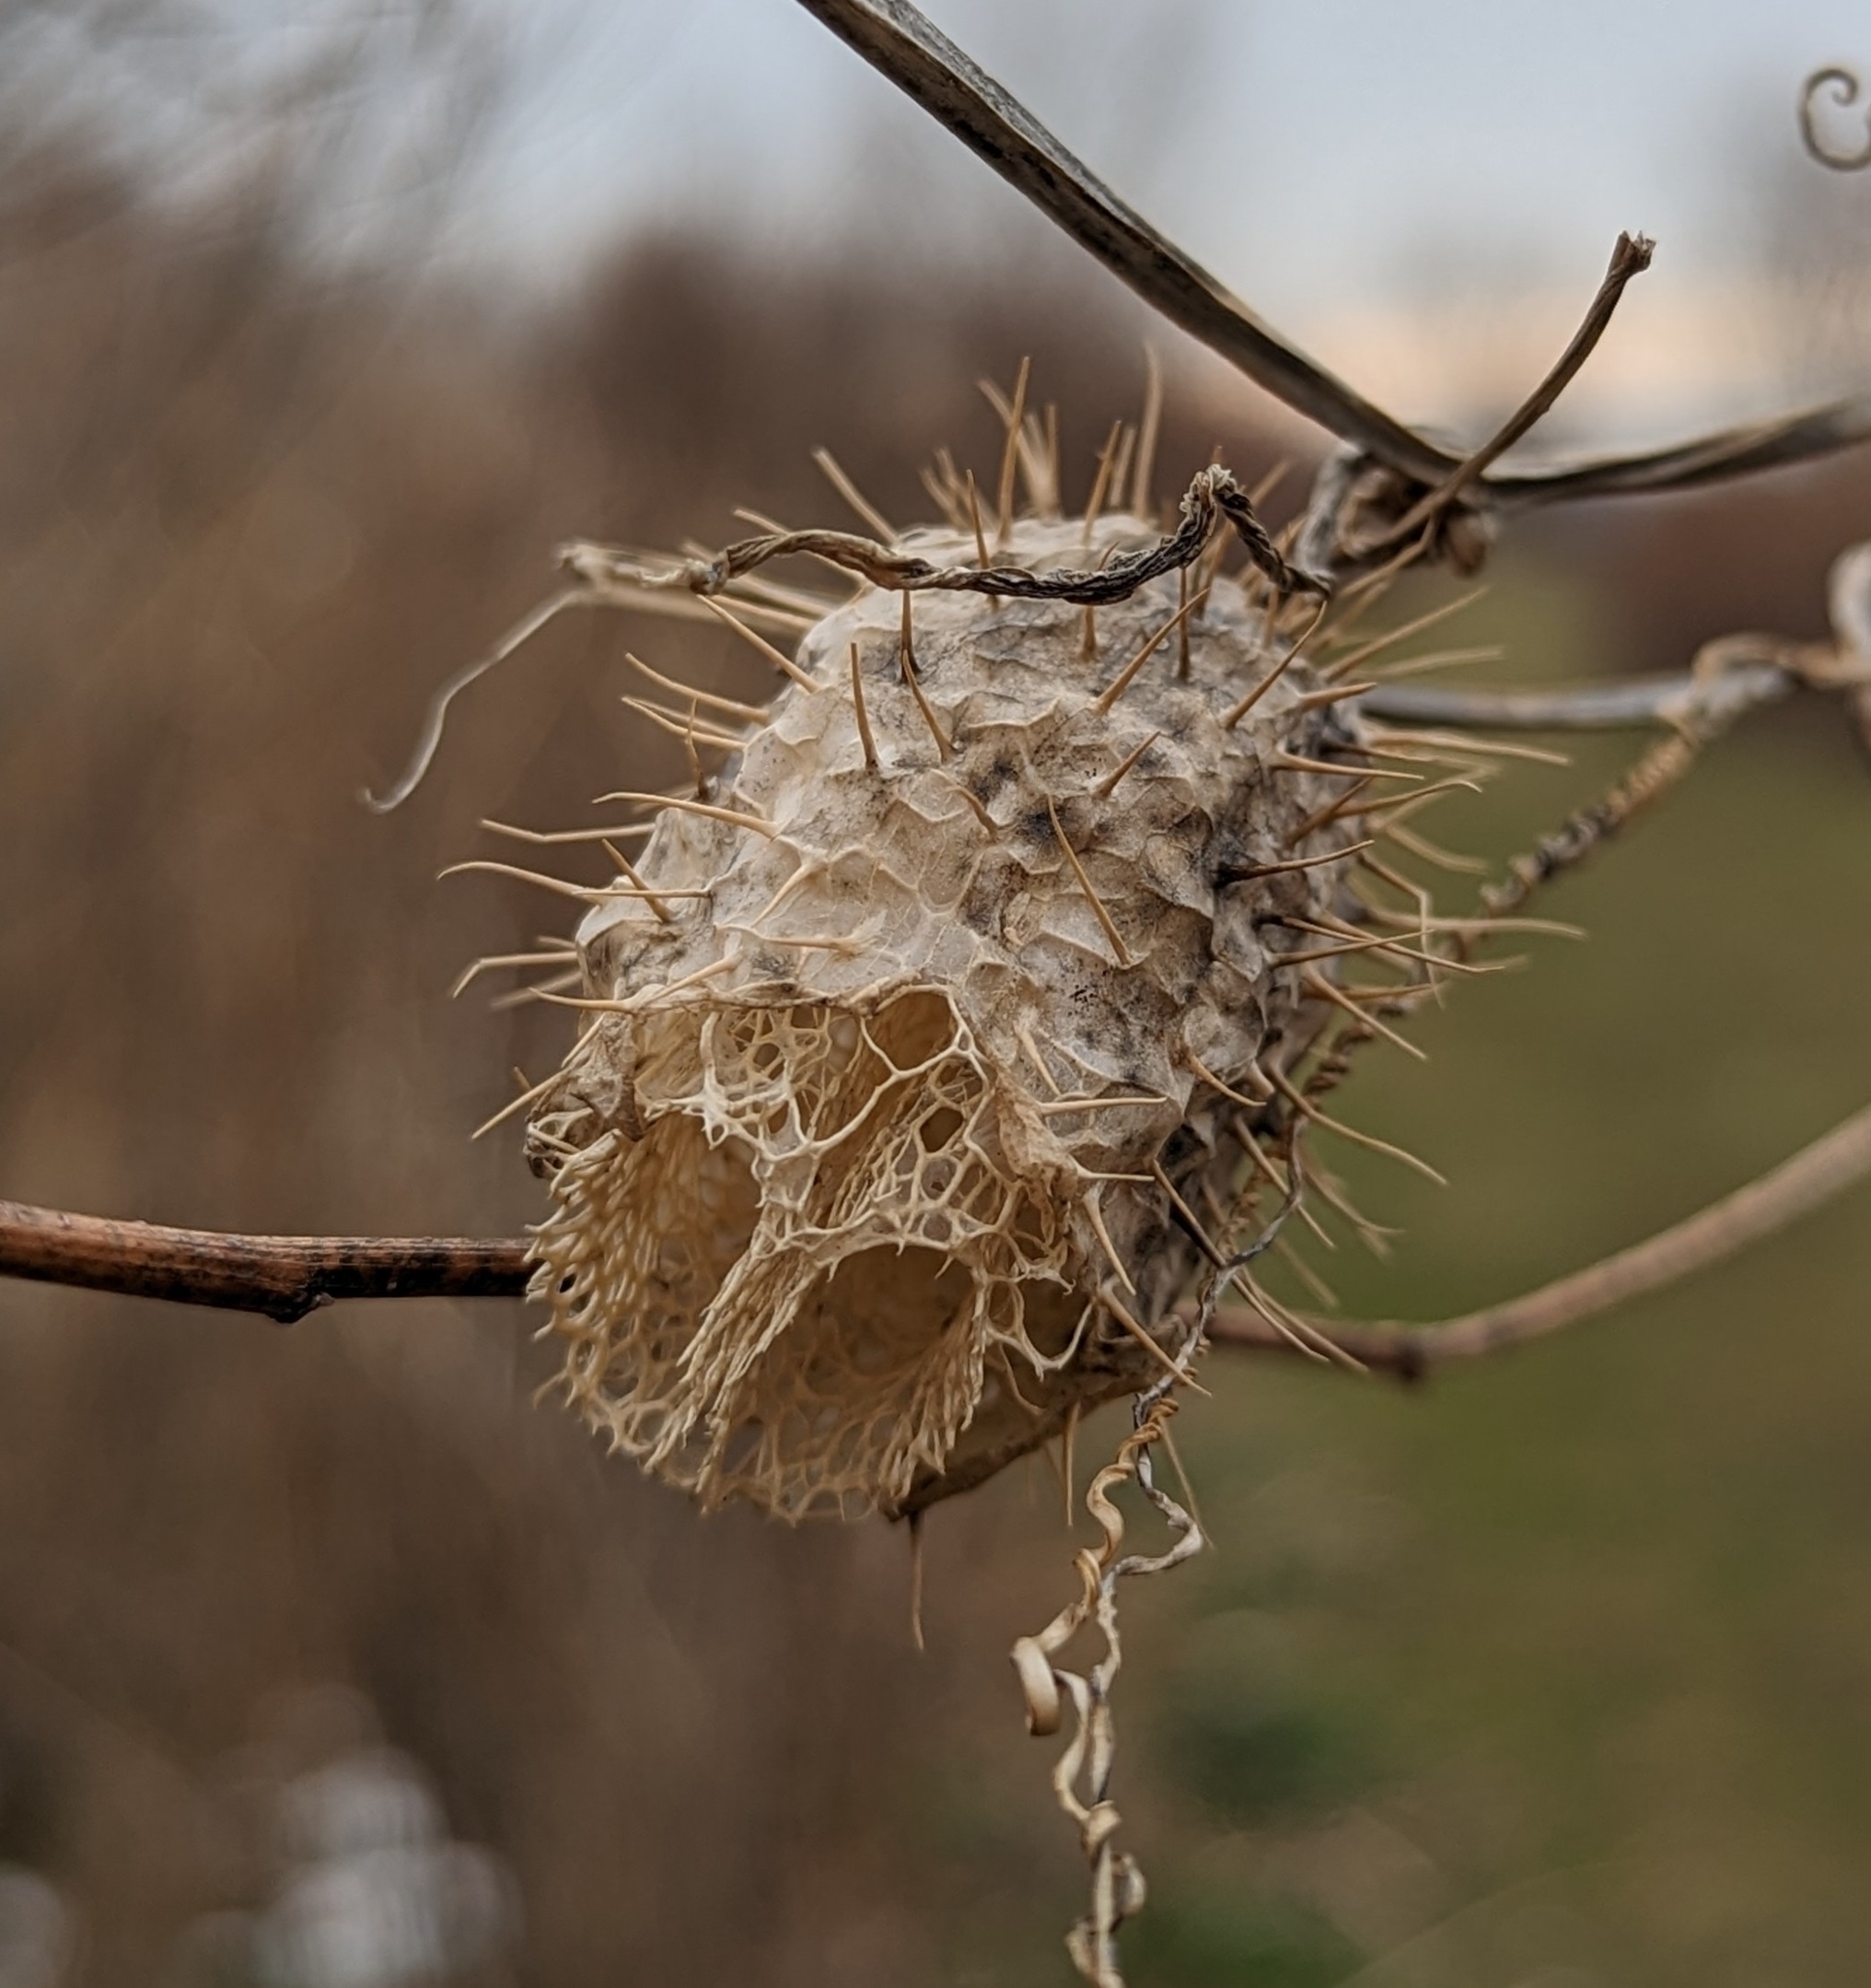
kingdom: Plantae
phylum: Tracheophyta
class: Magnoliopsida
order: Cucurbitales
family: Cucurbitaceae
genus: Echinocystis
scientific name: Echinocystis lobata
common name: Wild cucumber
